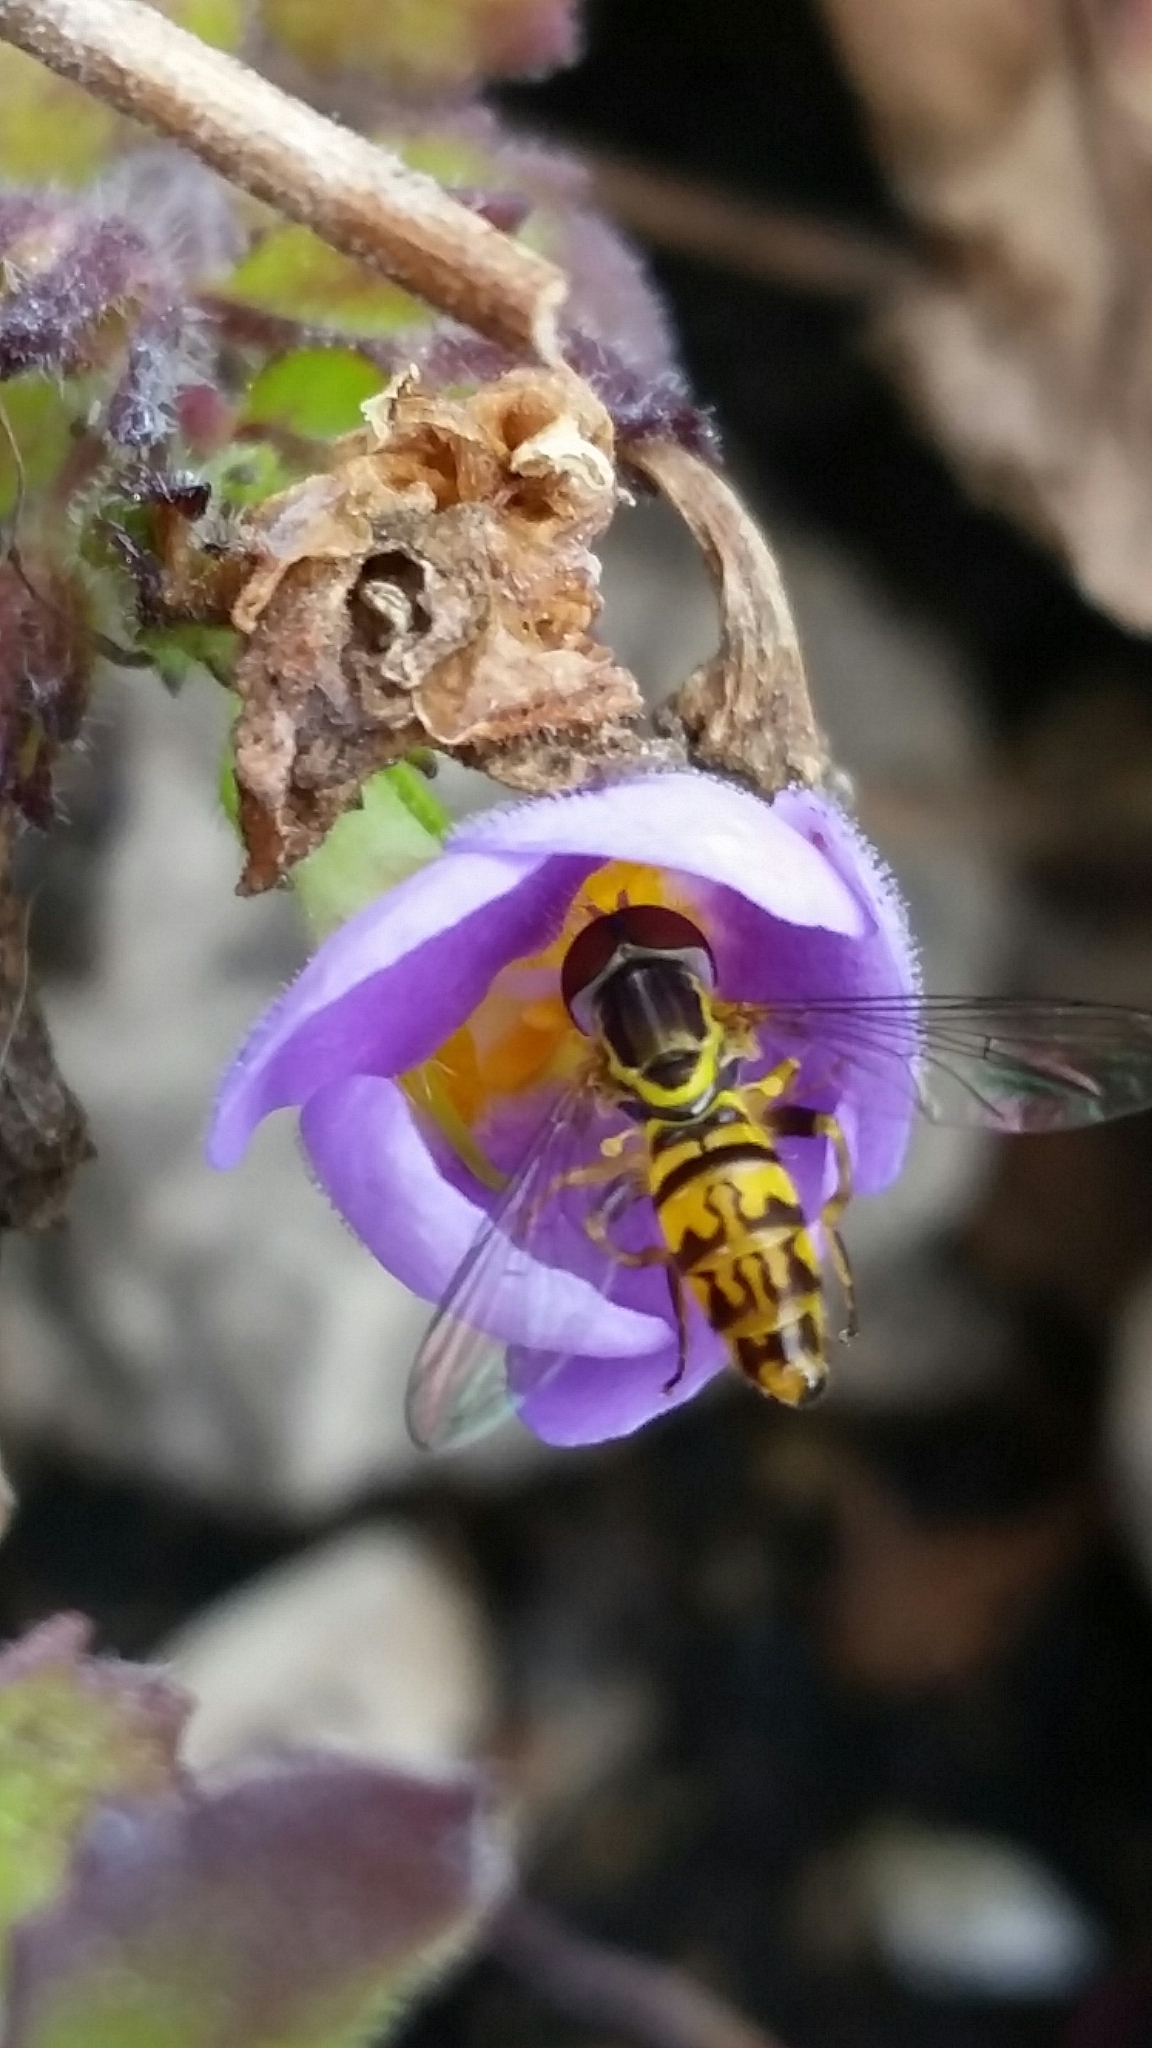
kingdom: Animalia
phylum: Arthropoda
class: Insecta
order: Diptera
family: Syrphidae
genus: Toxomerus
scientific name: Toxomerus geminatus
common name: Eastern calligrapher
